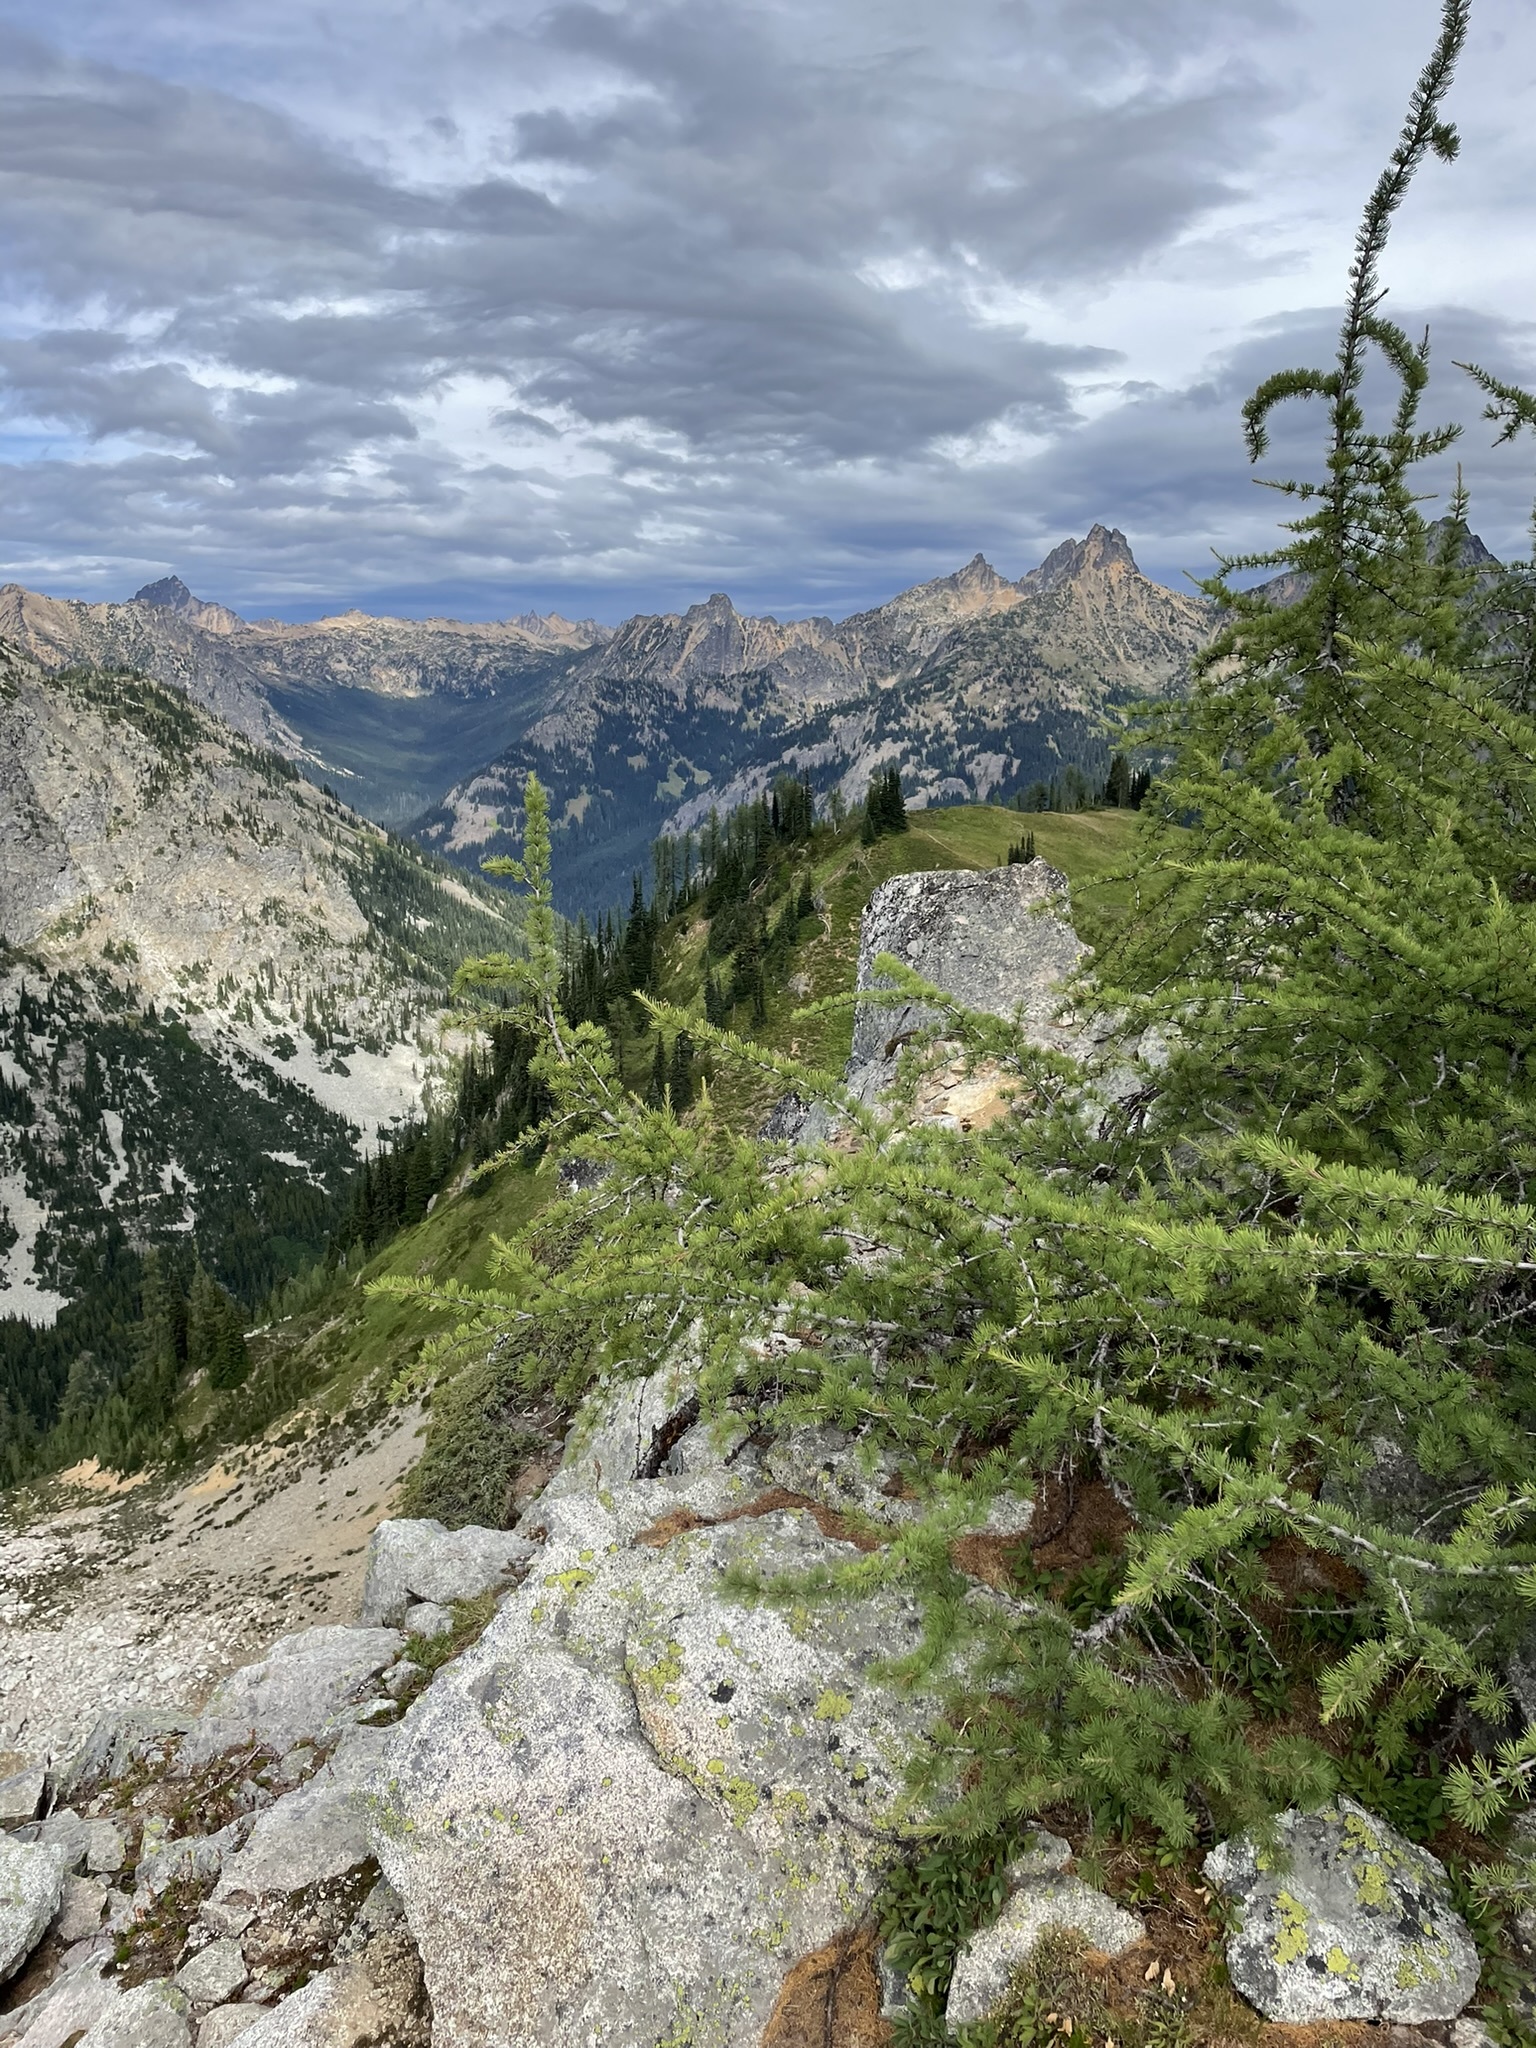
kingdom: Plantae
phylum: Tracheophyta
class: Pinopsida
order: Pinales
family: Pinaceae
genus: Larix
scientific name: Larix lyallii
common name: Alpine larch
